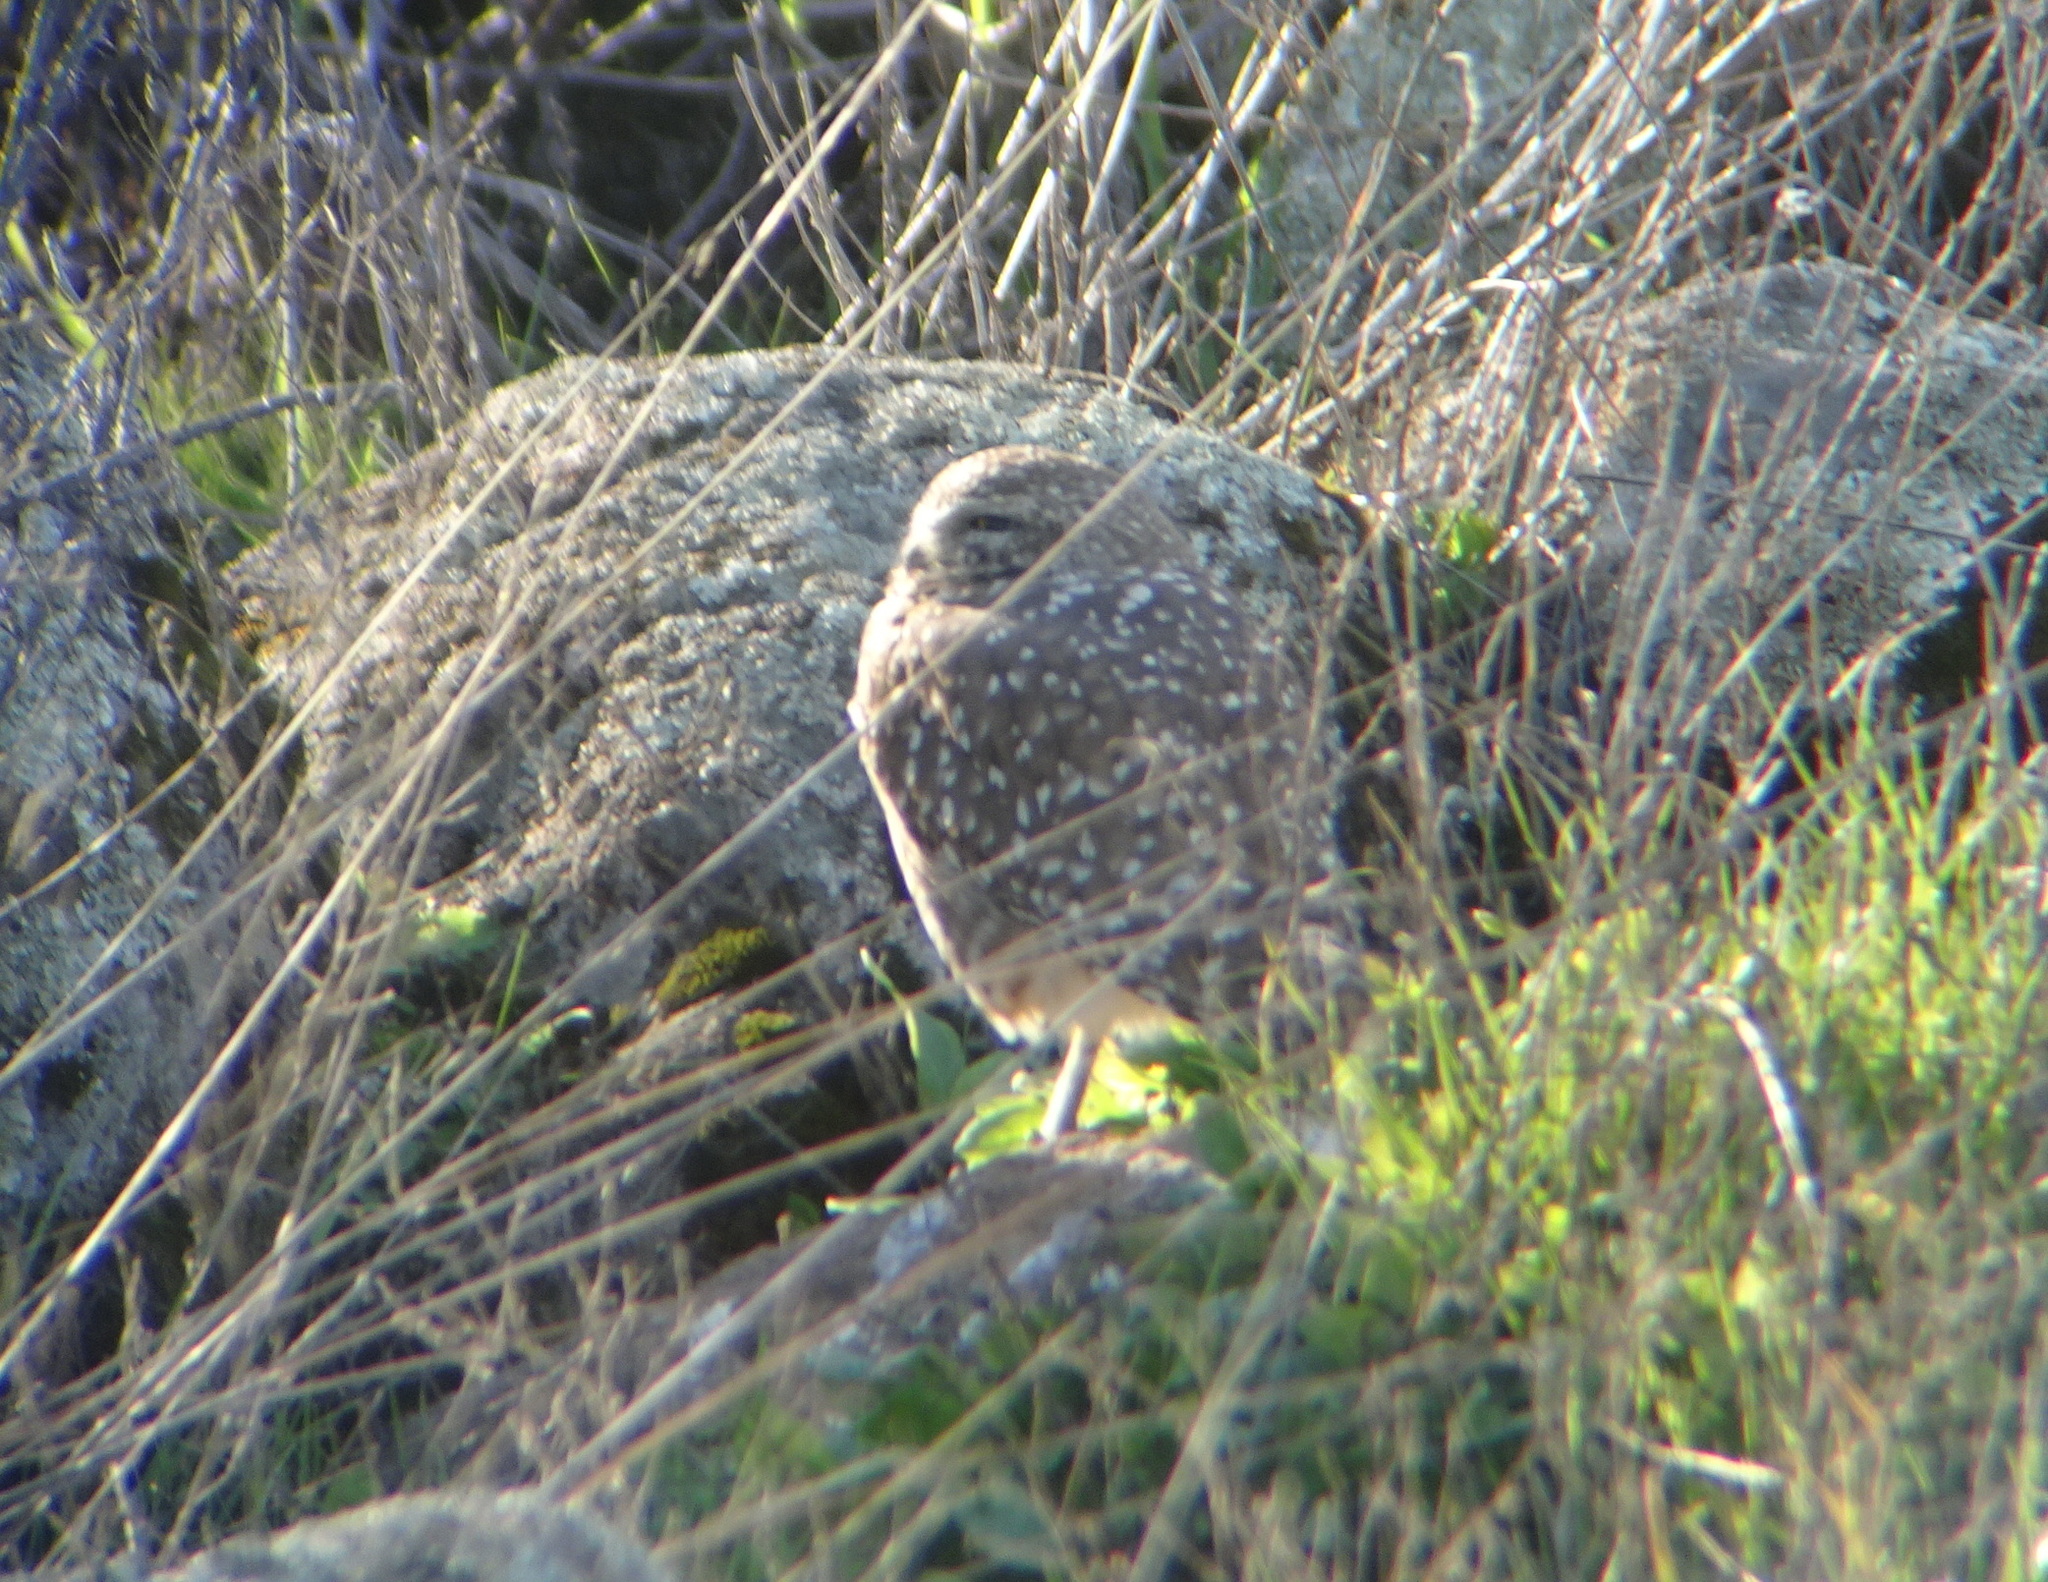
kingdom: Animalia
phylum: Chordata
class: Aves
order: Strigiformes
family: Strigidae
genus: Athene
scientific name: Athene cunicularia
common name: Burrowing owl
